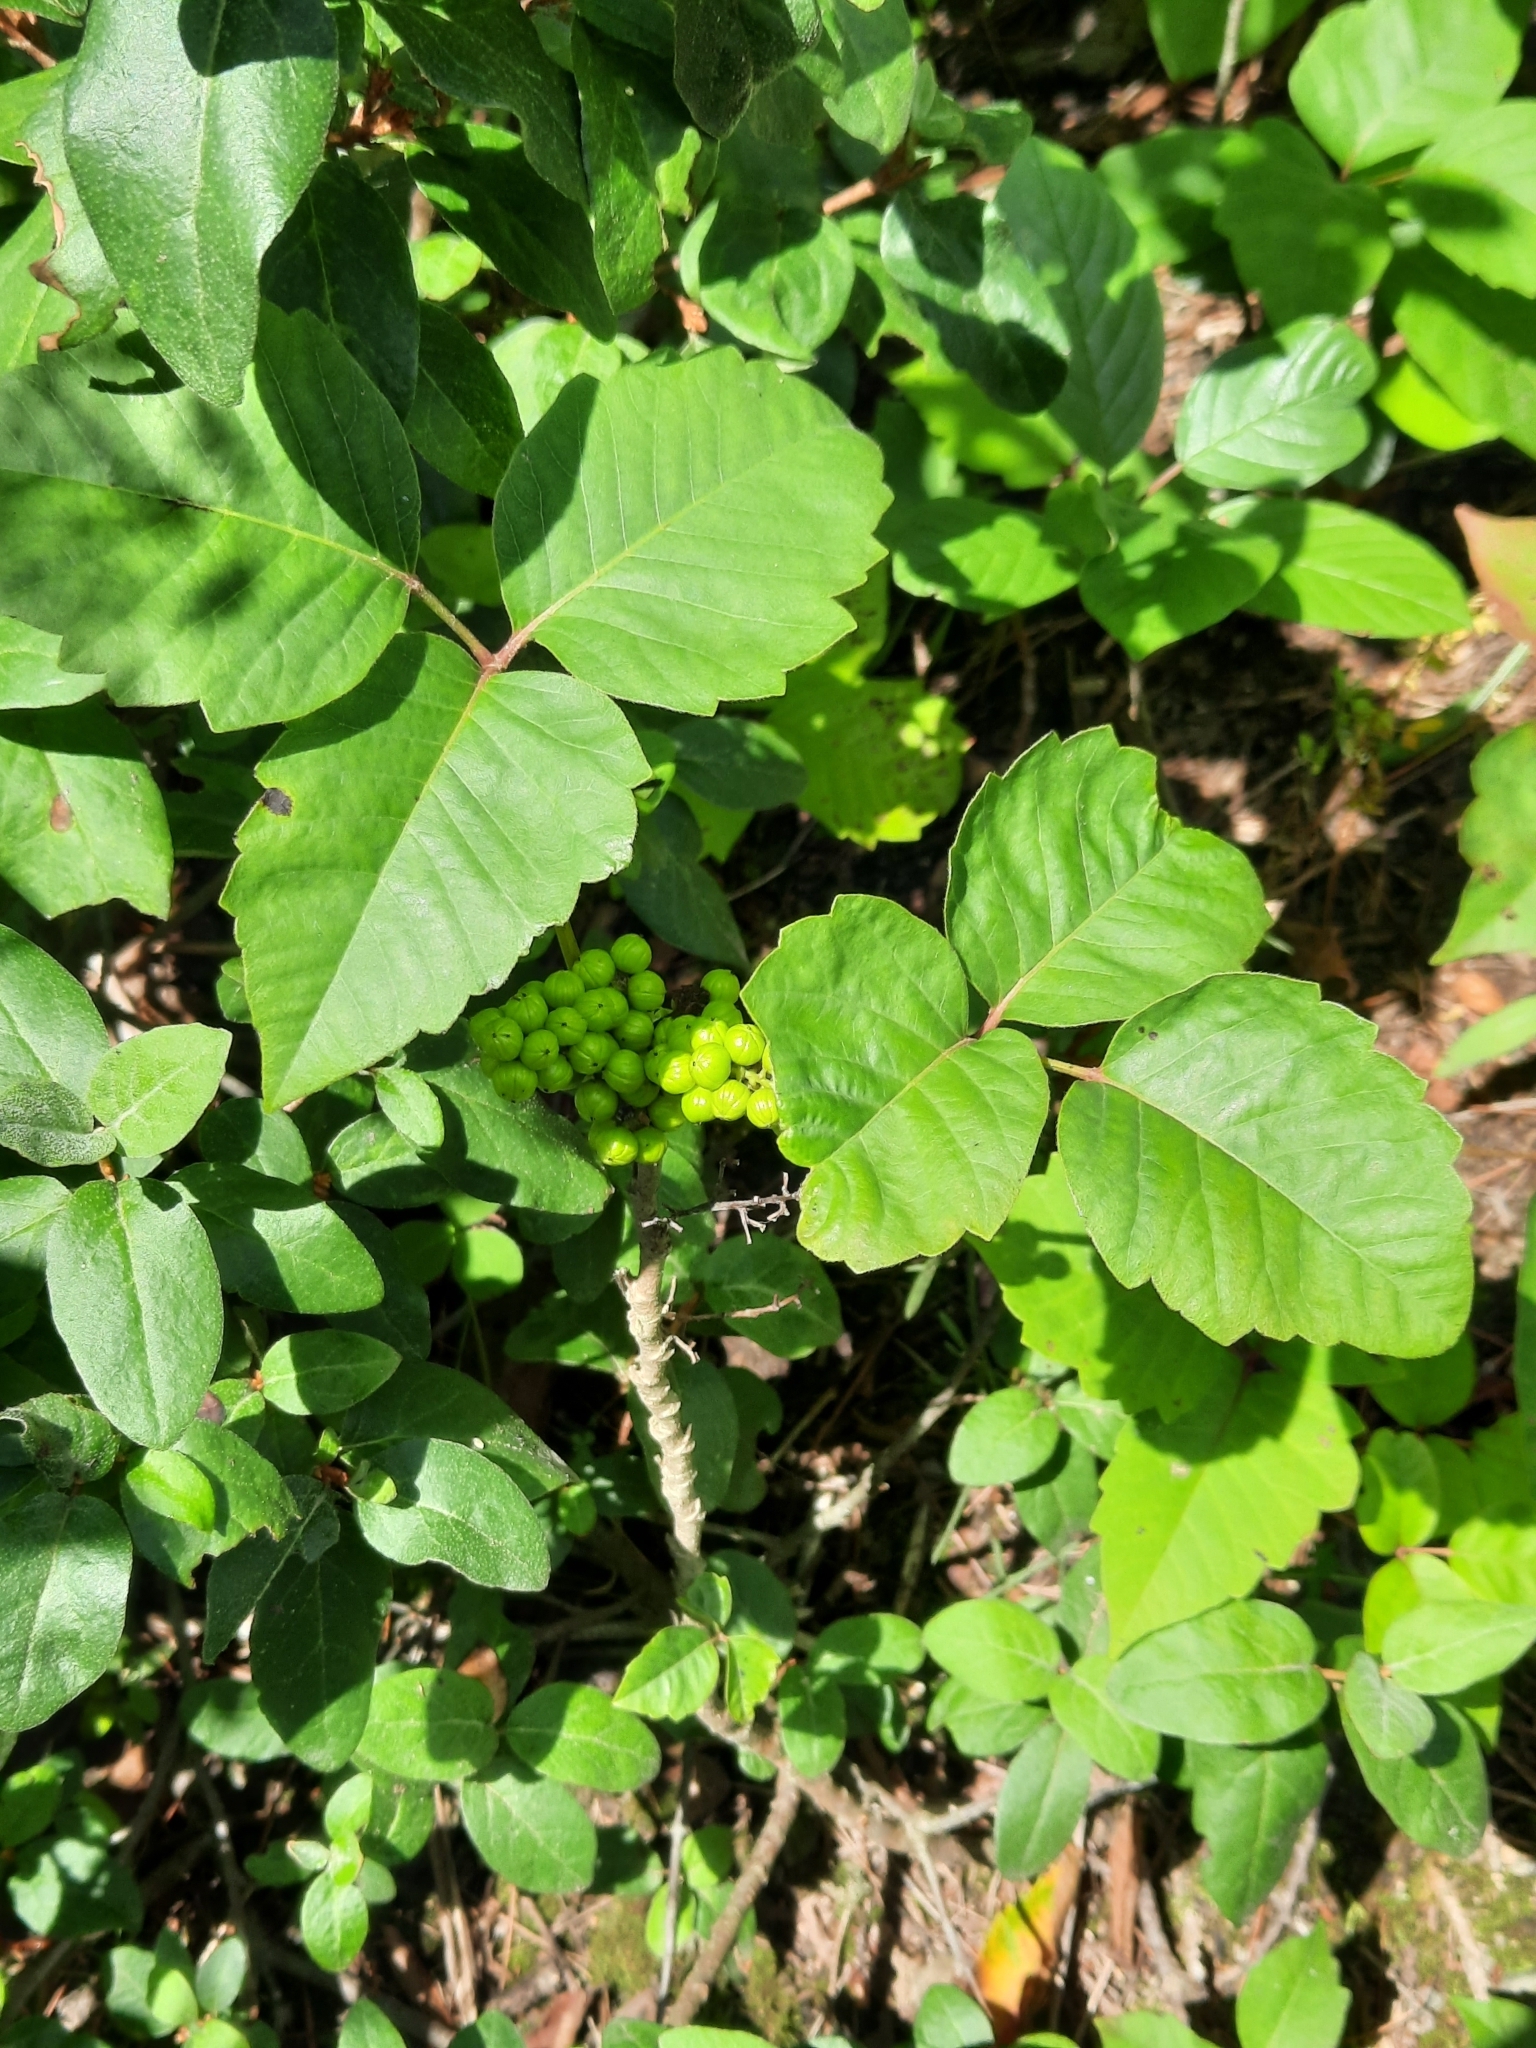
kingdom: Plantae
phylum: Tracheophyta
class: Magnoliopsida
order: Sapindales
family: Anacardiaceae
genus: Toxicodendron
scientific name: Toxicodendron rydbergii
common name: Rydberg's poison-ivy
